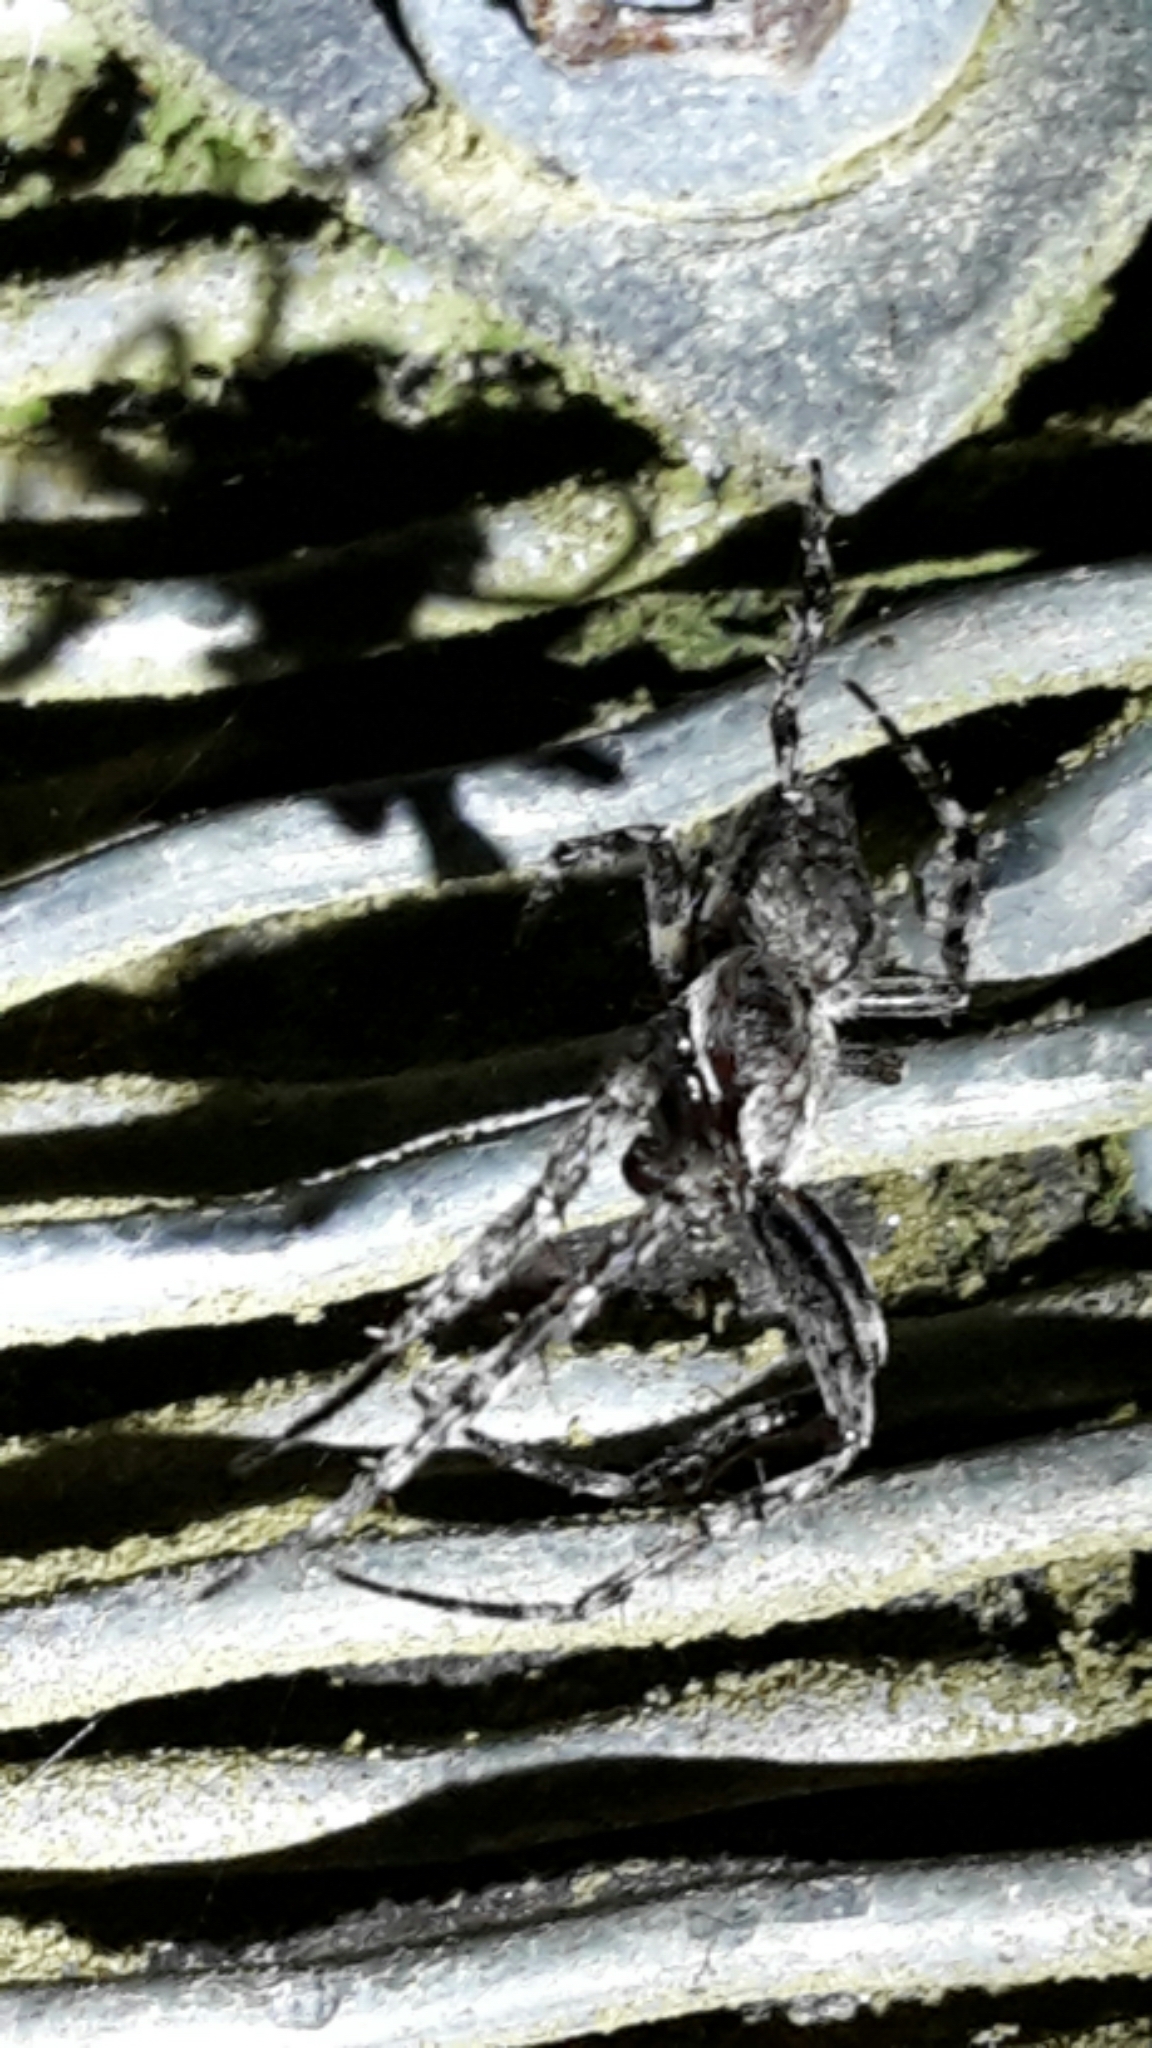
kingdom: Animalia
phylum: Arthropoda
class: Arachnida
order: Araneae
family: Araneidae
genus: Eriophora
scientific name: Eriophora pustulosa
